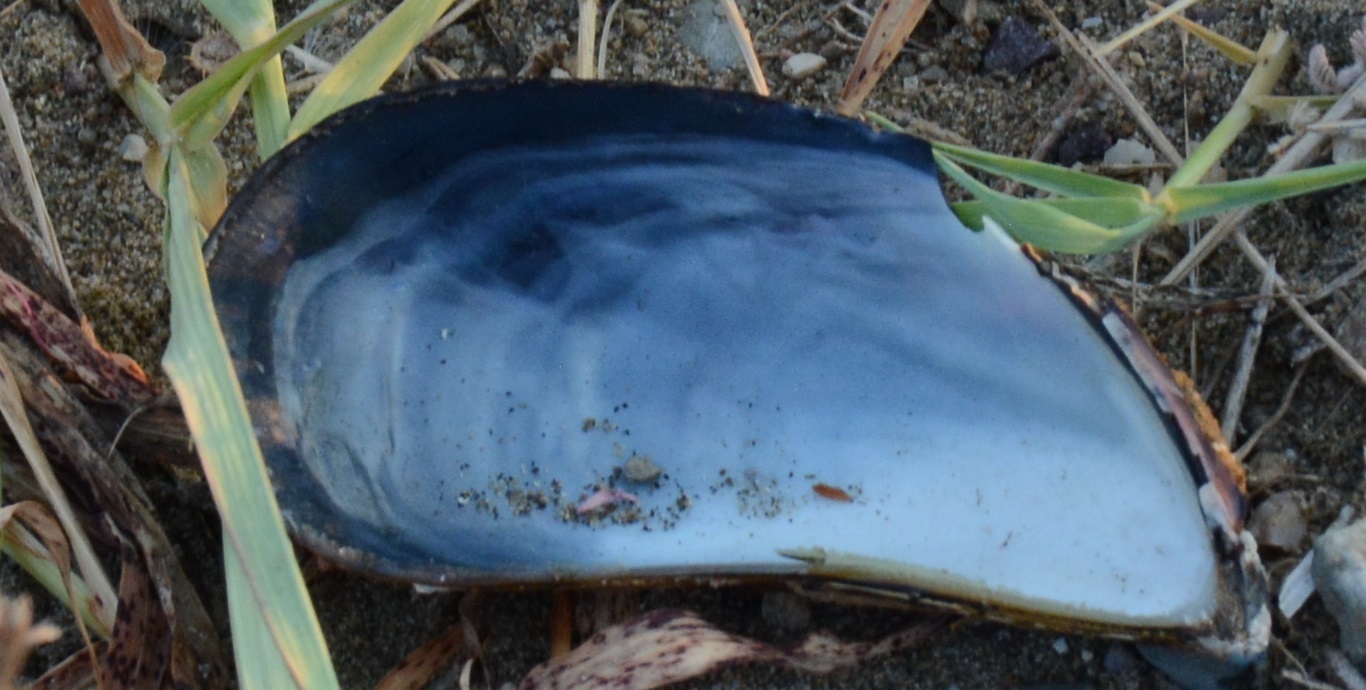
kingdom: Animalia
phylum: Mollusca
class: Bivalvia
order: Mytilida
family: Mytilidae
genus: Mytilus
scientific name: Mytilus galloprovincialis
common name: Mediterranean mussel
